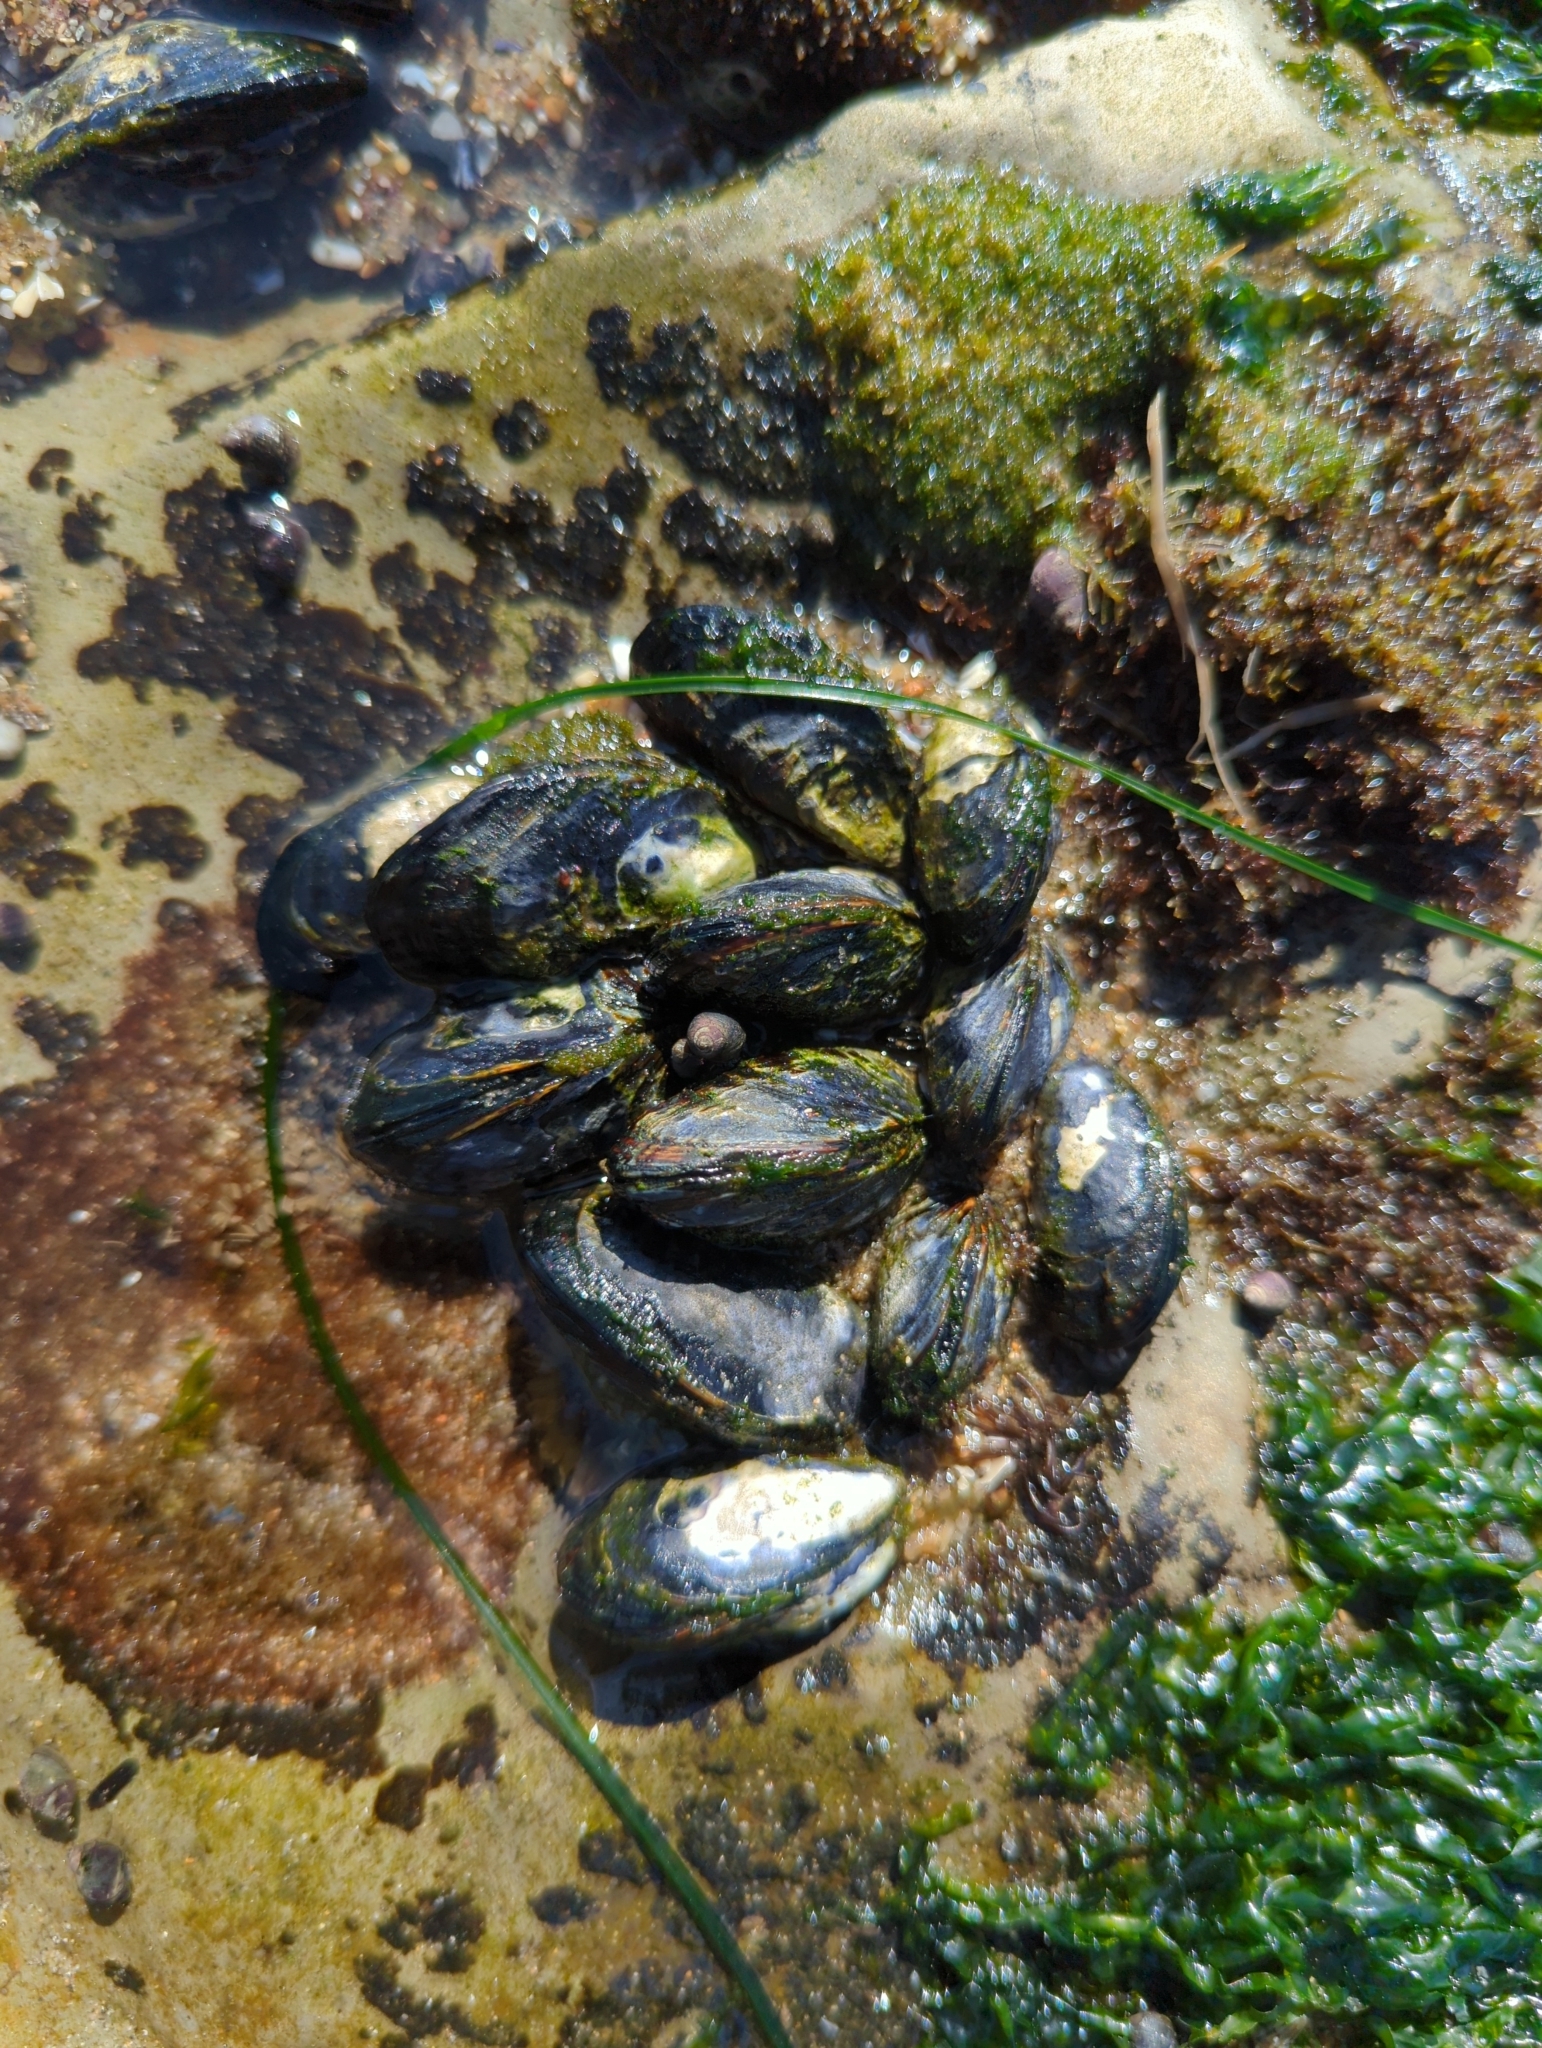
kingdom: Animalia
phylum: Mollusca
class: Bivalvia
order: Mytilida
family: Mytilidae
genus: Mytilus
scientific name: Mytilus californianus
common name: California mussel
